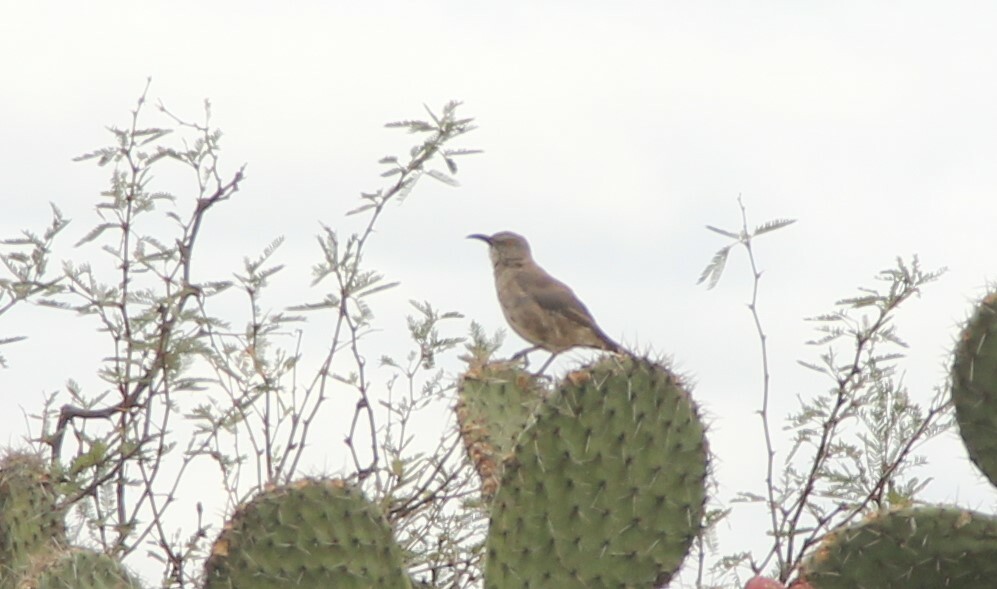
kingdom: Animalia
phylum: Chordata
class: Aves
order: Passeriformes
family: Mimidae
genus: Toxostoma
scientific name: Toxostoma curvirostre
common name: Curve-billed thrasher
